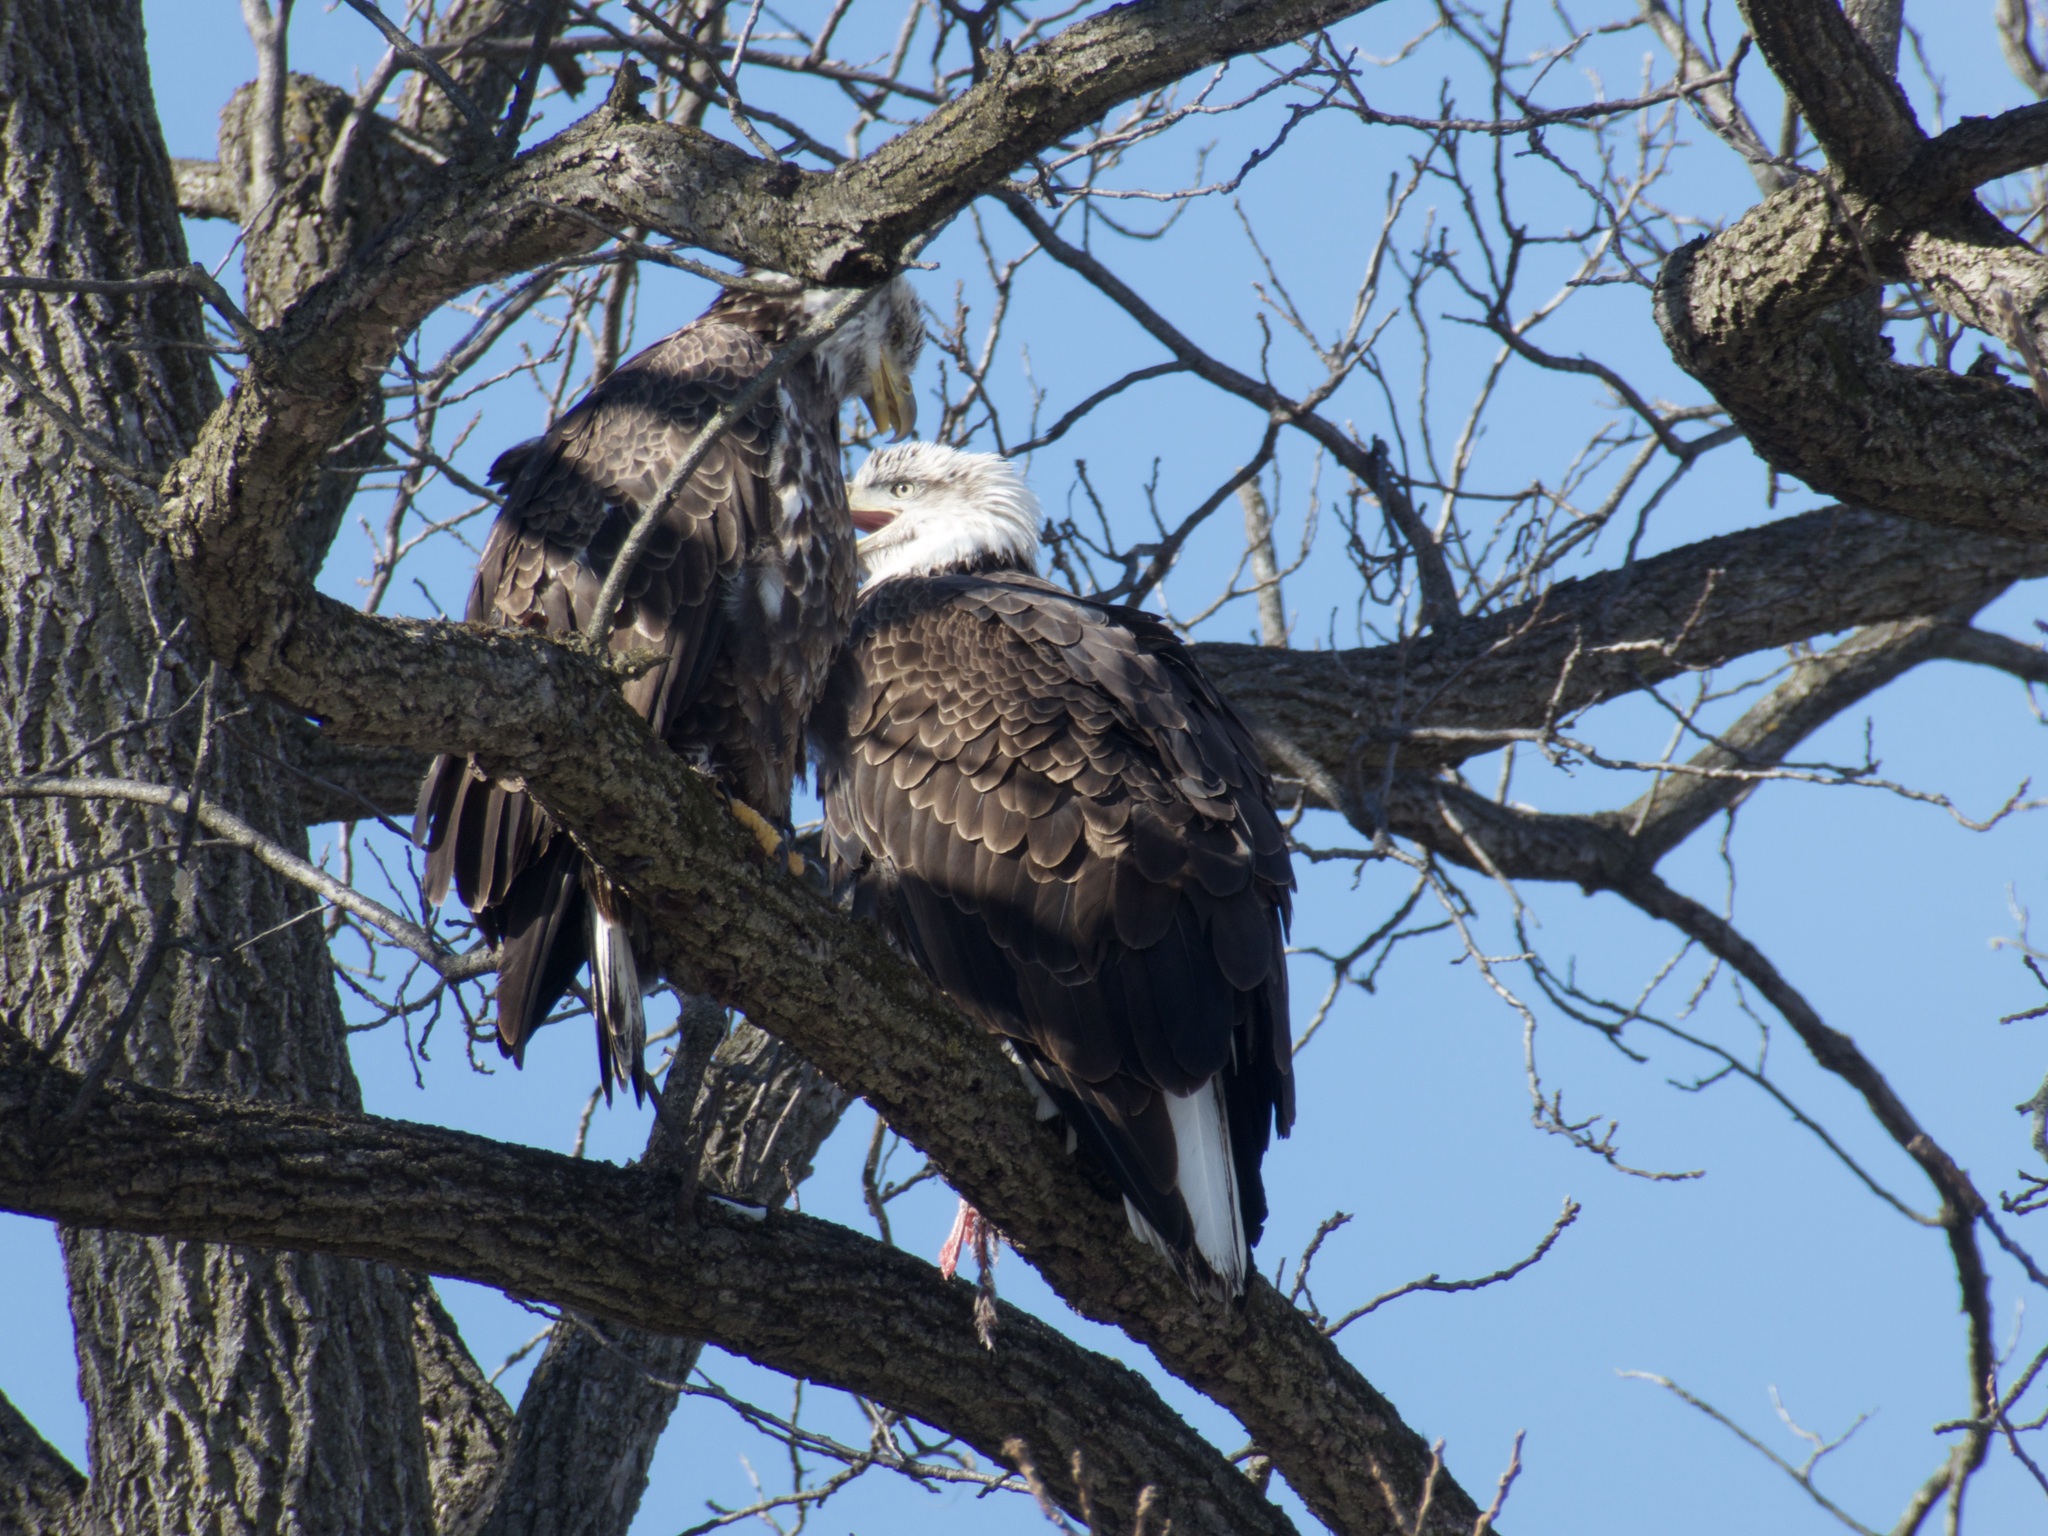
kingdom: Animalia
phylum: Chordata
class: Aves
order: Accipitriformes
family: Accipitridae
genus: Haliaeetus
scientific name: Haliaeetus leucocephalus
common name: Bald eagle
